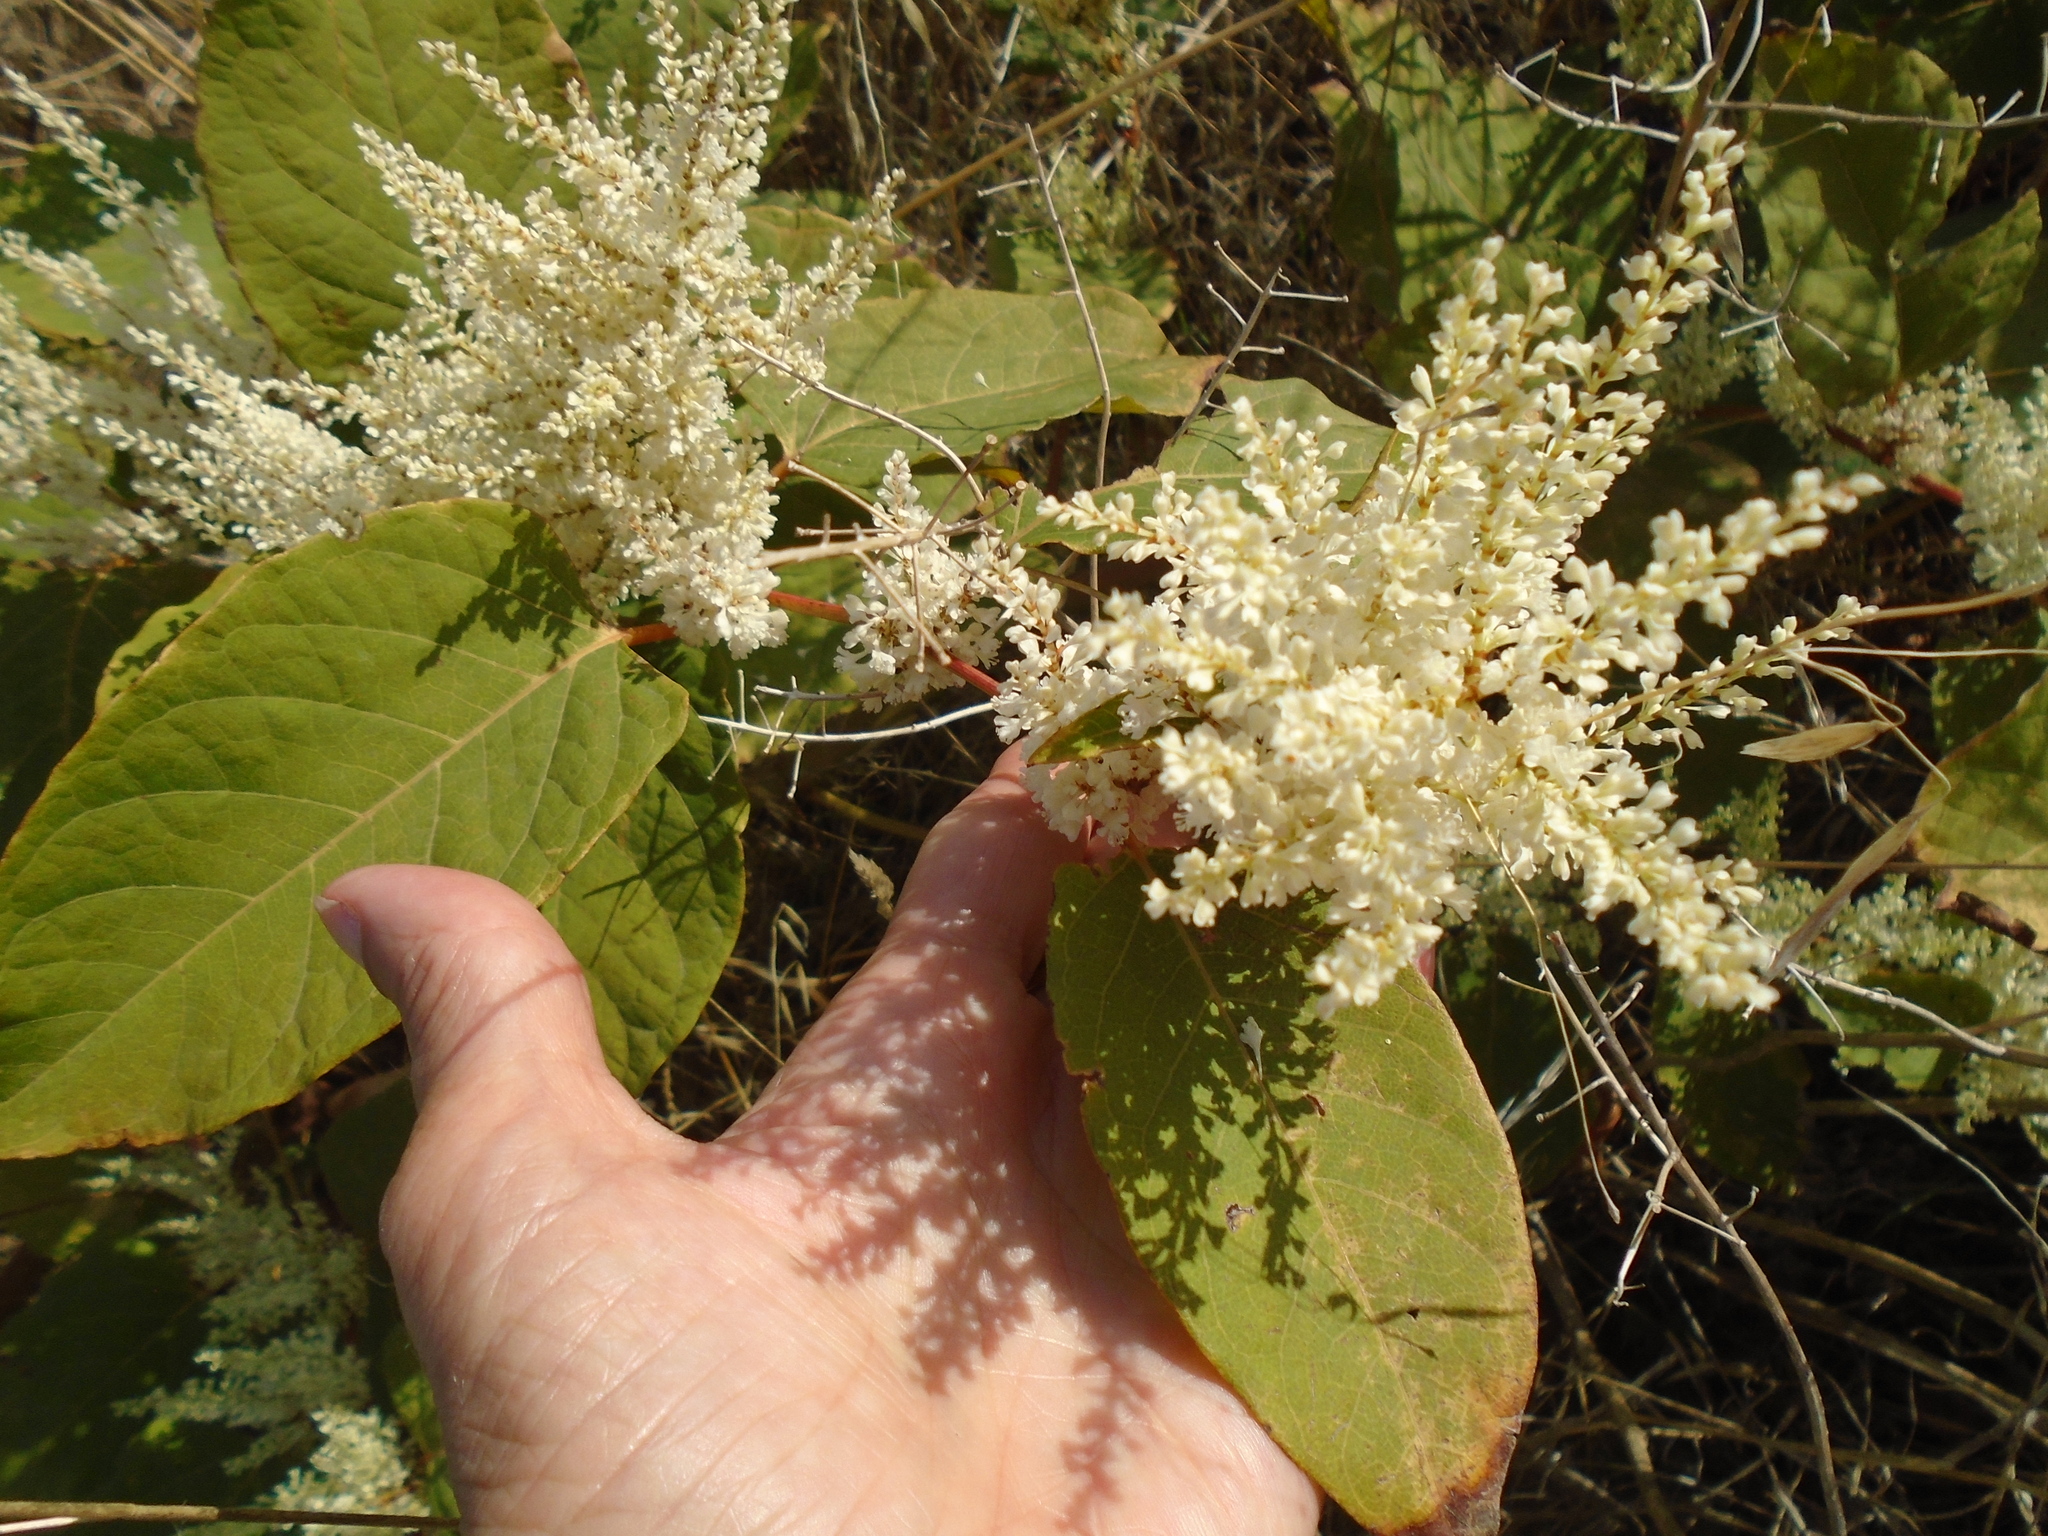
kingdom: Plantae
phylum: Tracheophyta
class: Magnoliopsida
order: Caryophyllales
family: Polygonaceae
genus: Reynoutria
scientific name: Reynoutria japonica
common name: Japanese knotweed
